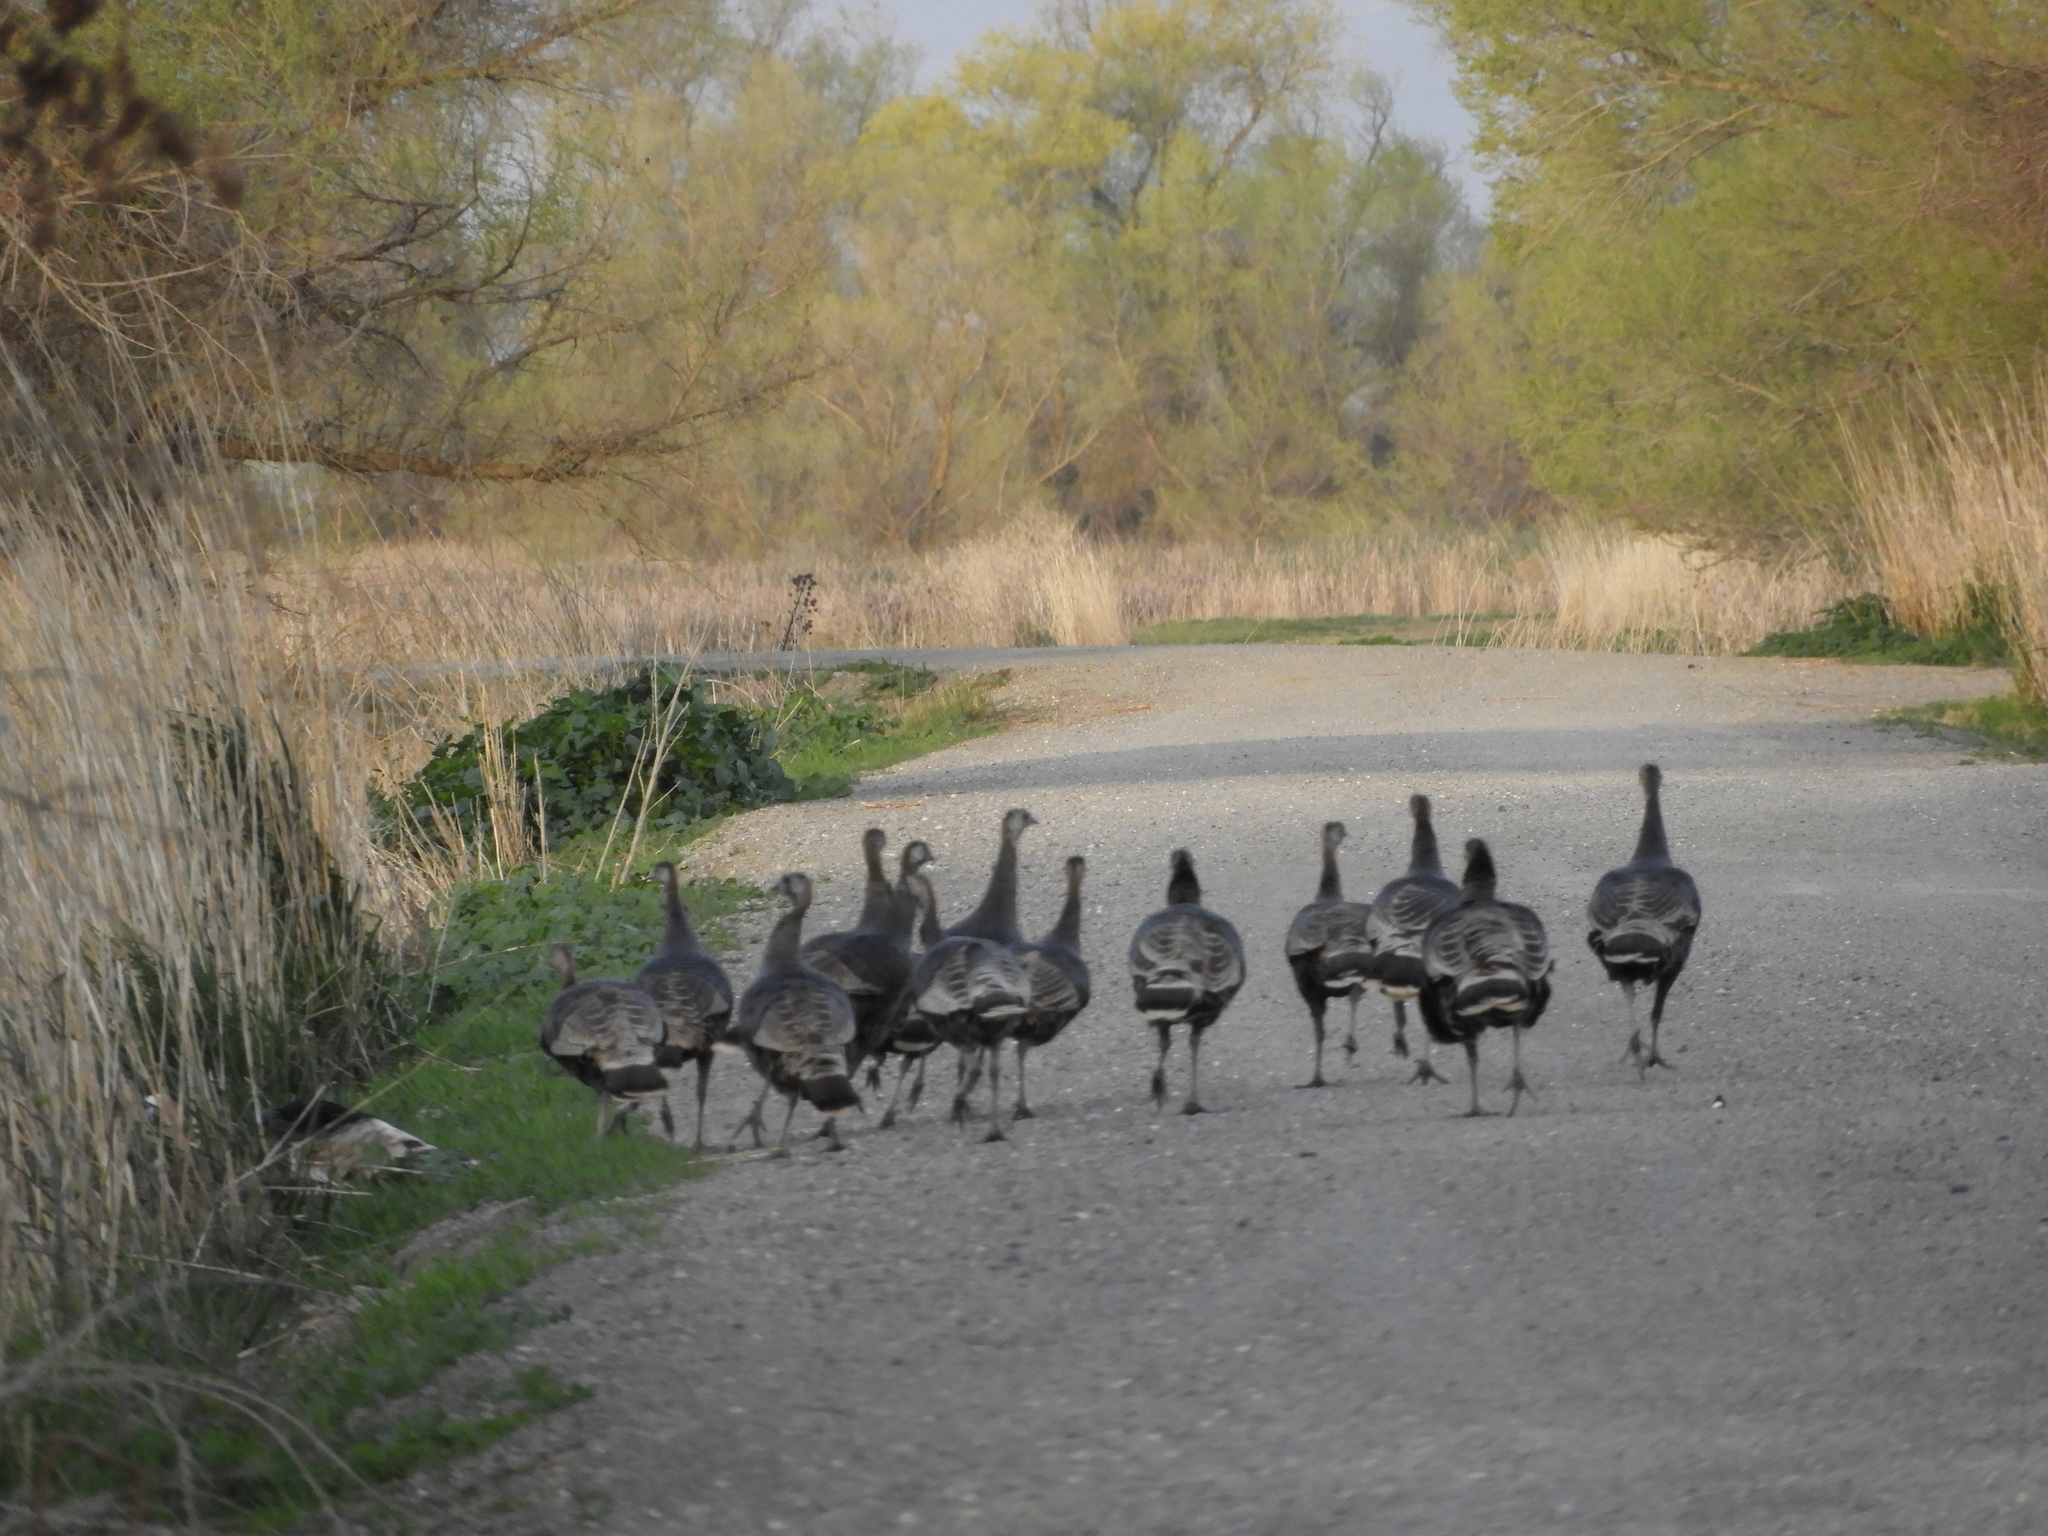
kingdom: Animalia
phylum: Chordata
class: Aves
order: Galliformes
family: Phasianidae
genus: Meleagris
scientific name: Meleagris gallopavo
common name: Wild turkey
